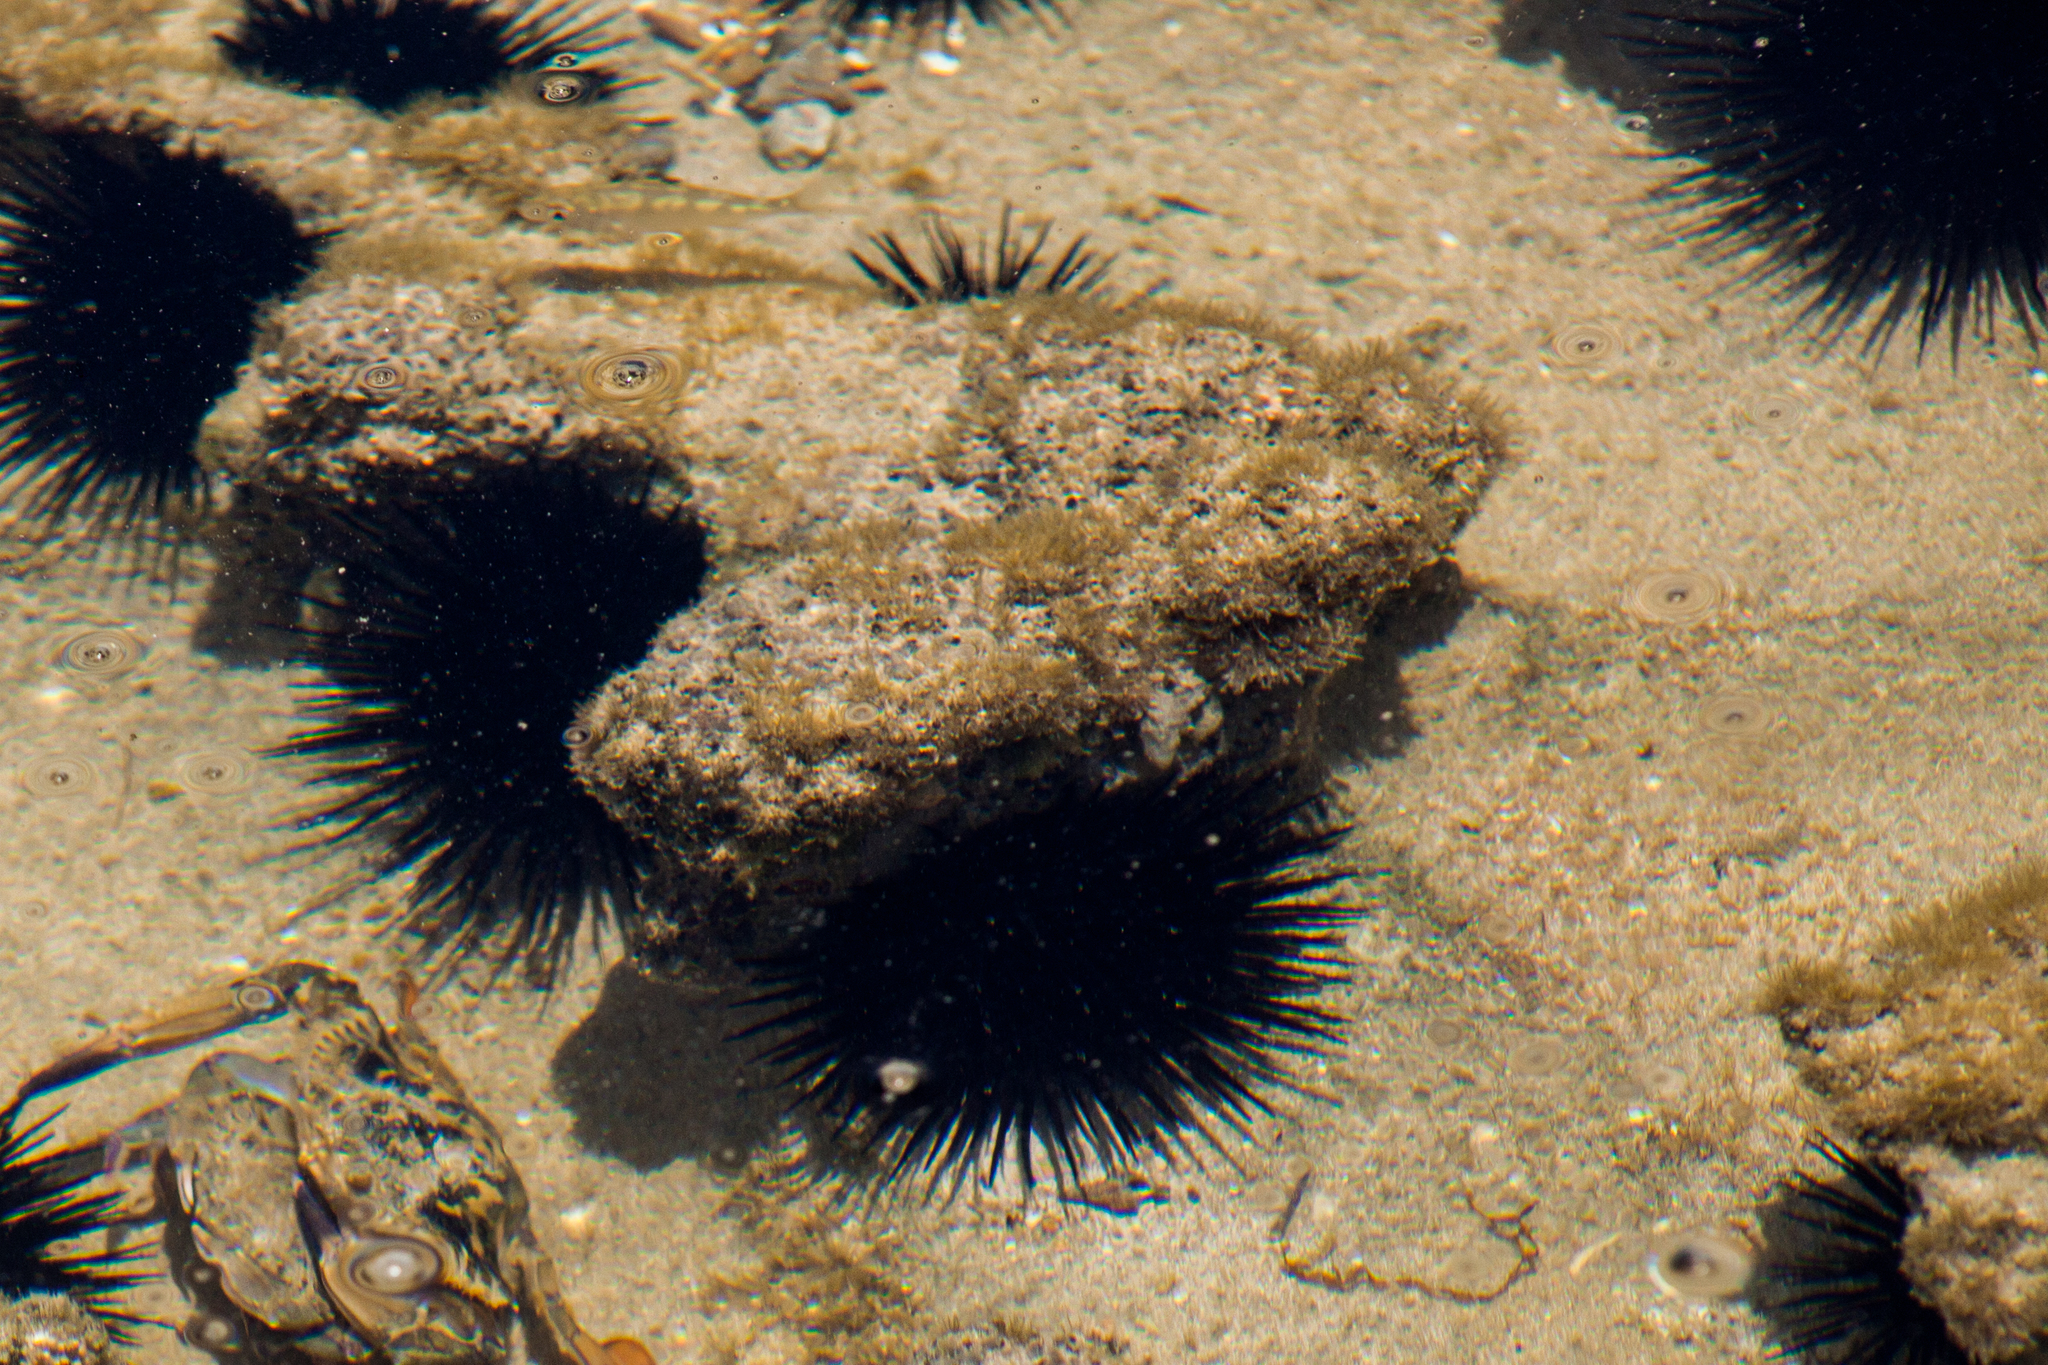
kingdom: Animalia
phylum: Echinodermata
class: Echinoidea
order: Camarodonta
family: Echinometridae
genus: Echinometra
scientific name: Echinometra lucunter
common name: Rock urchin
